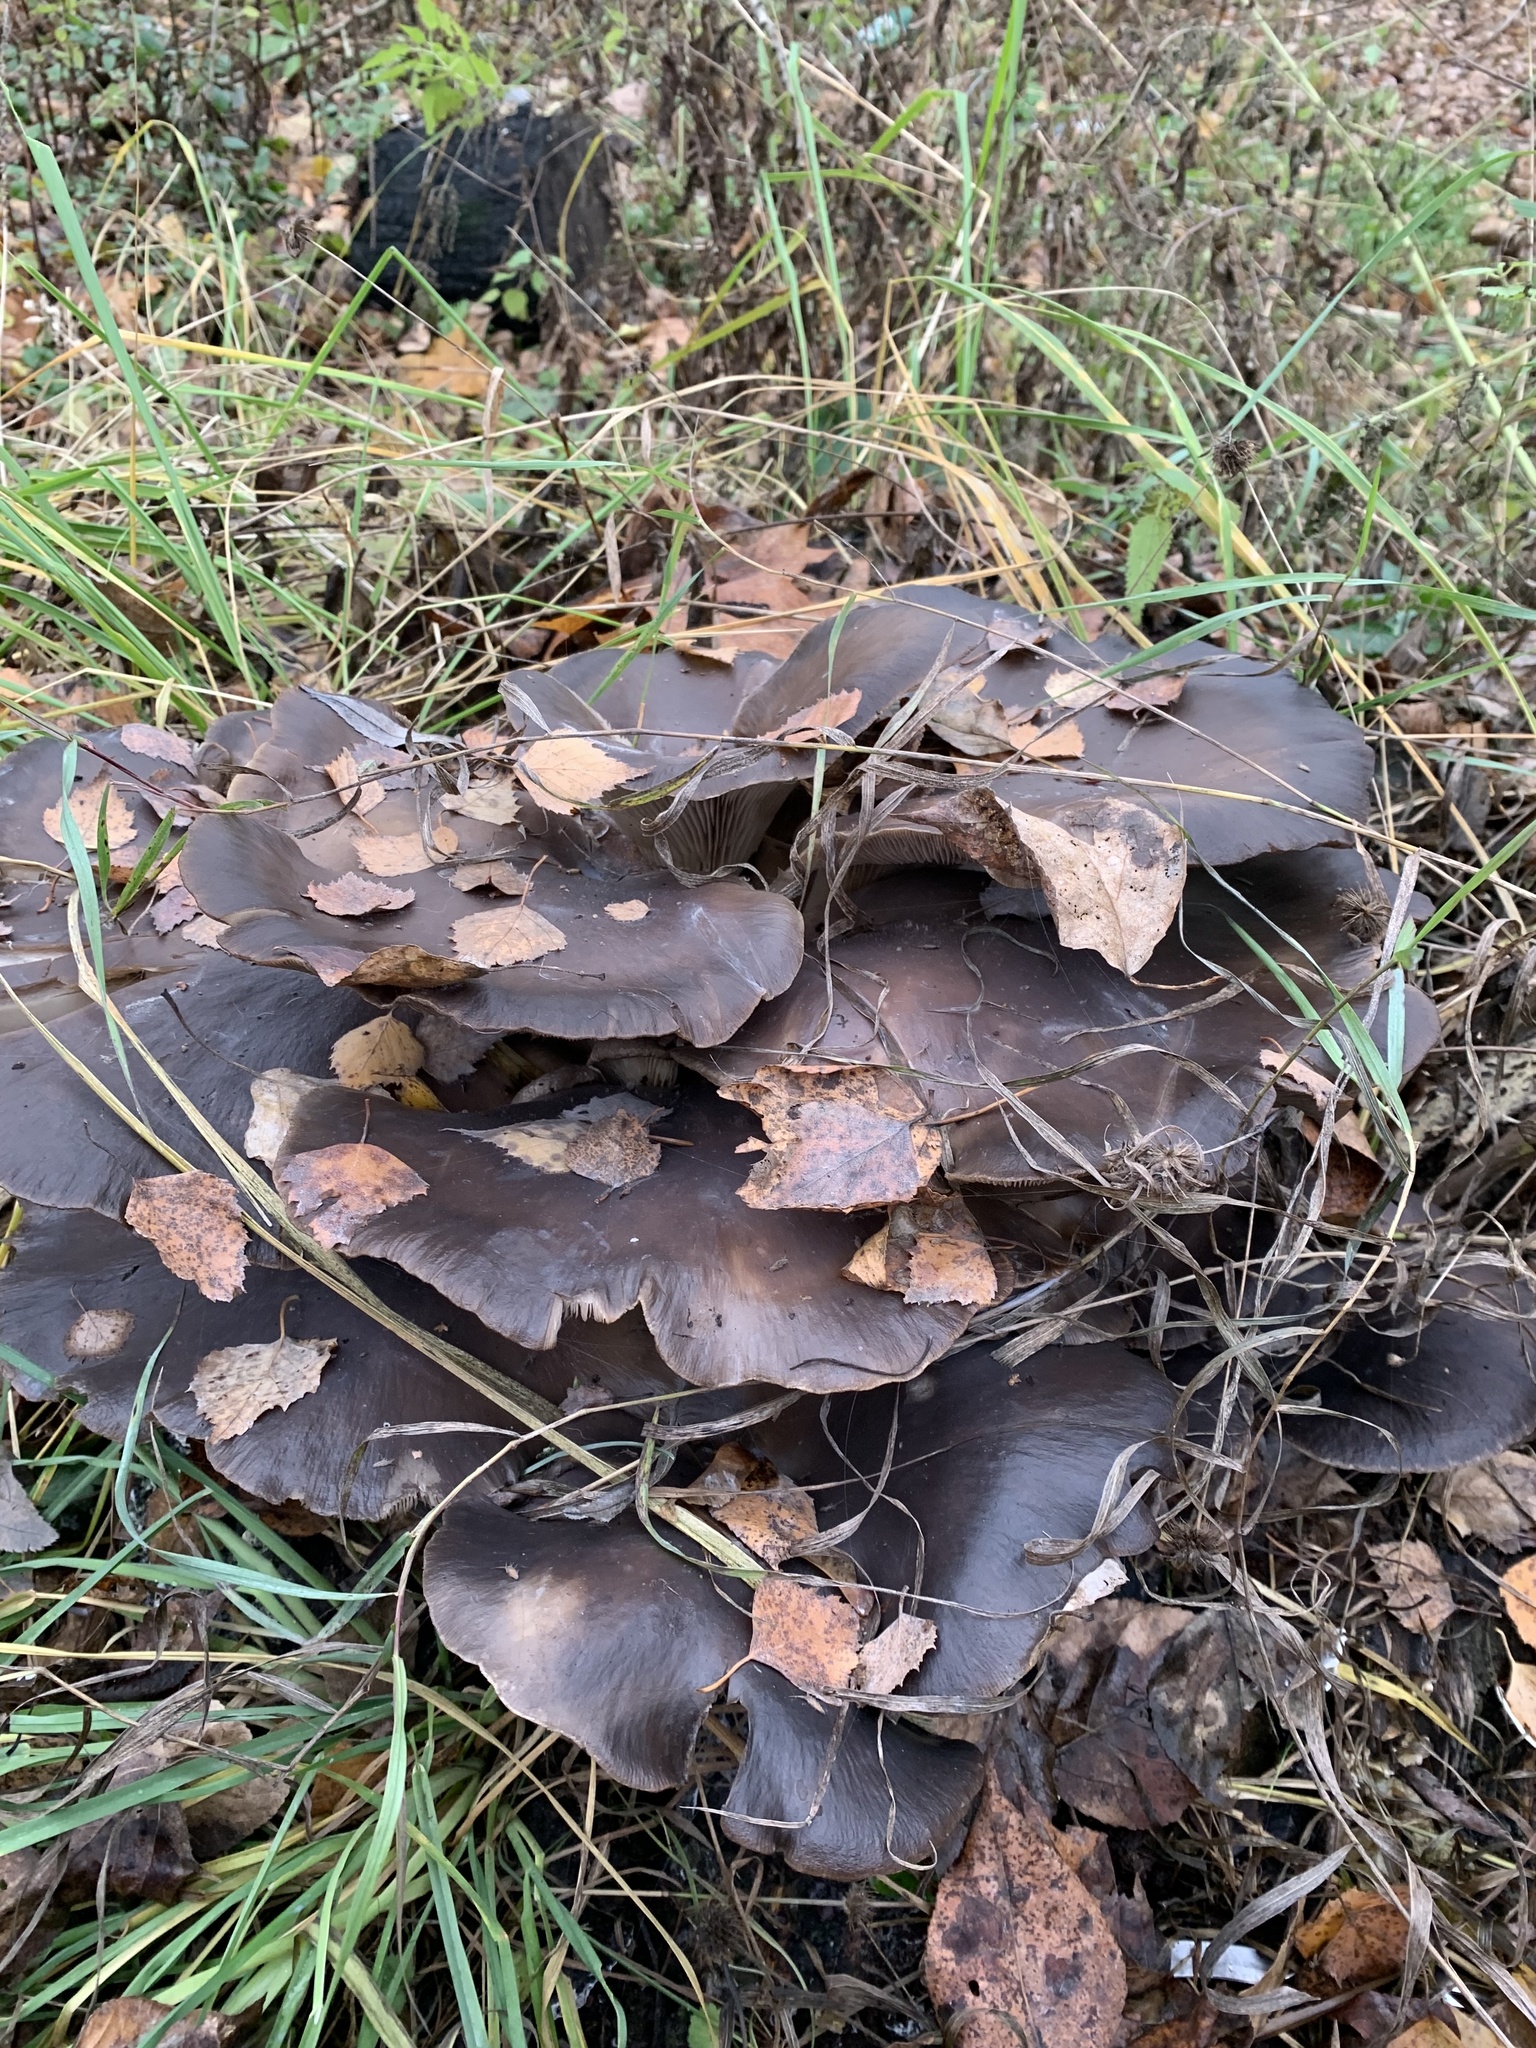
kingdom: Fungi
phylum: Basidiomycota
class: Agaricomycetes
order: Agaricales
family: Pleurotaceae
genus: Pleurotus
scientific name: Pleurotus ostreatus
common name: Oyster mushroom
